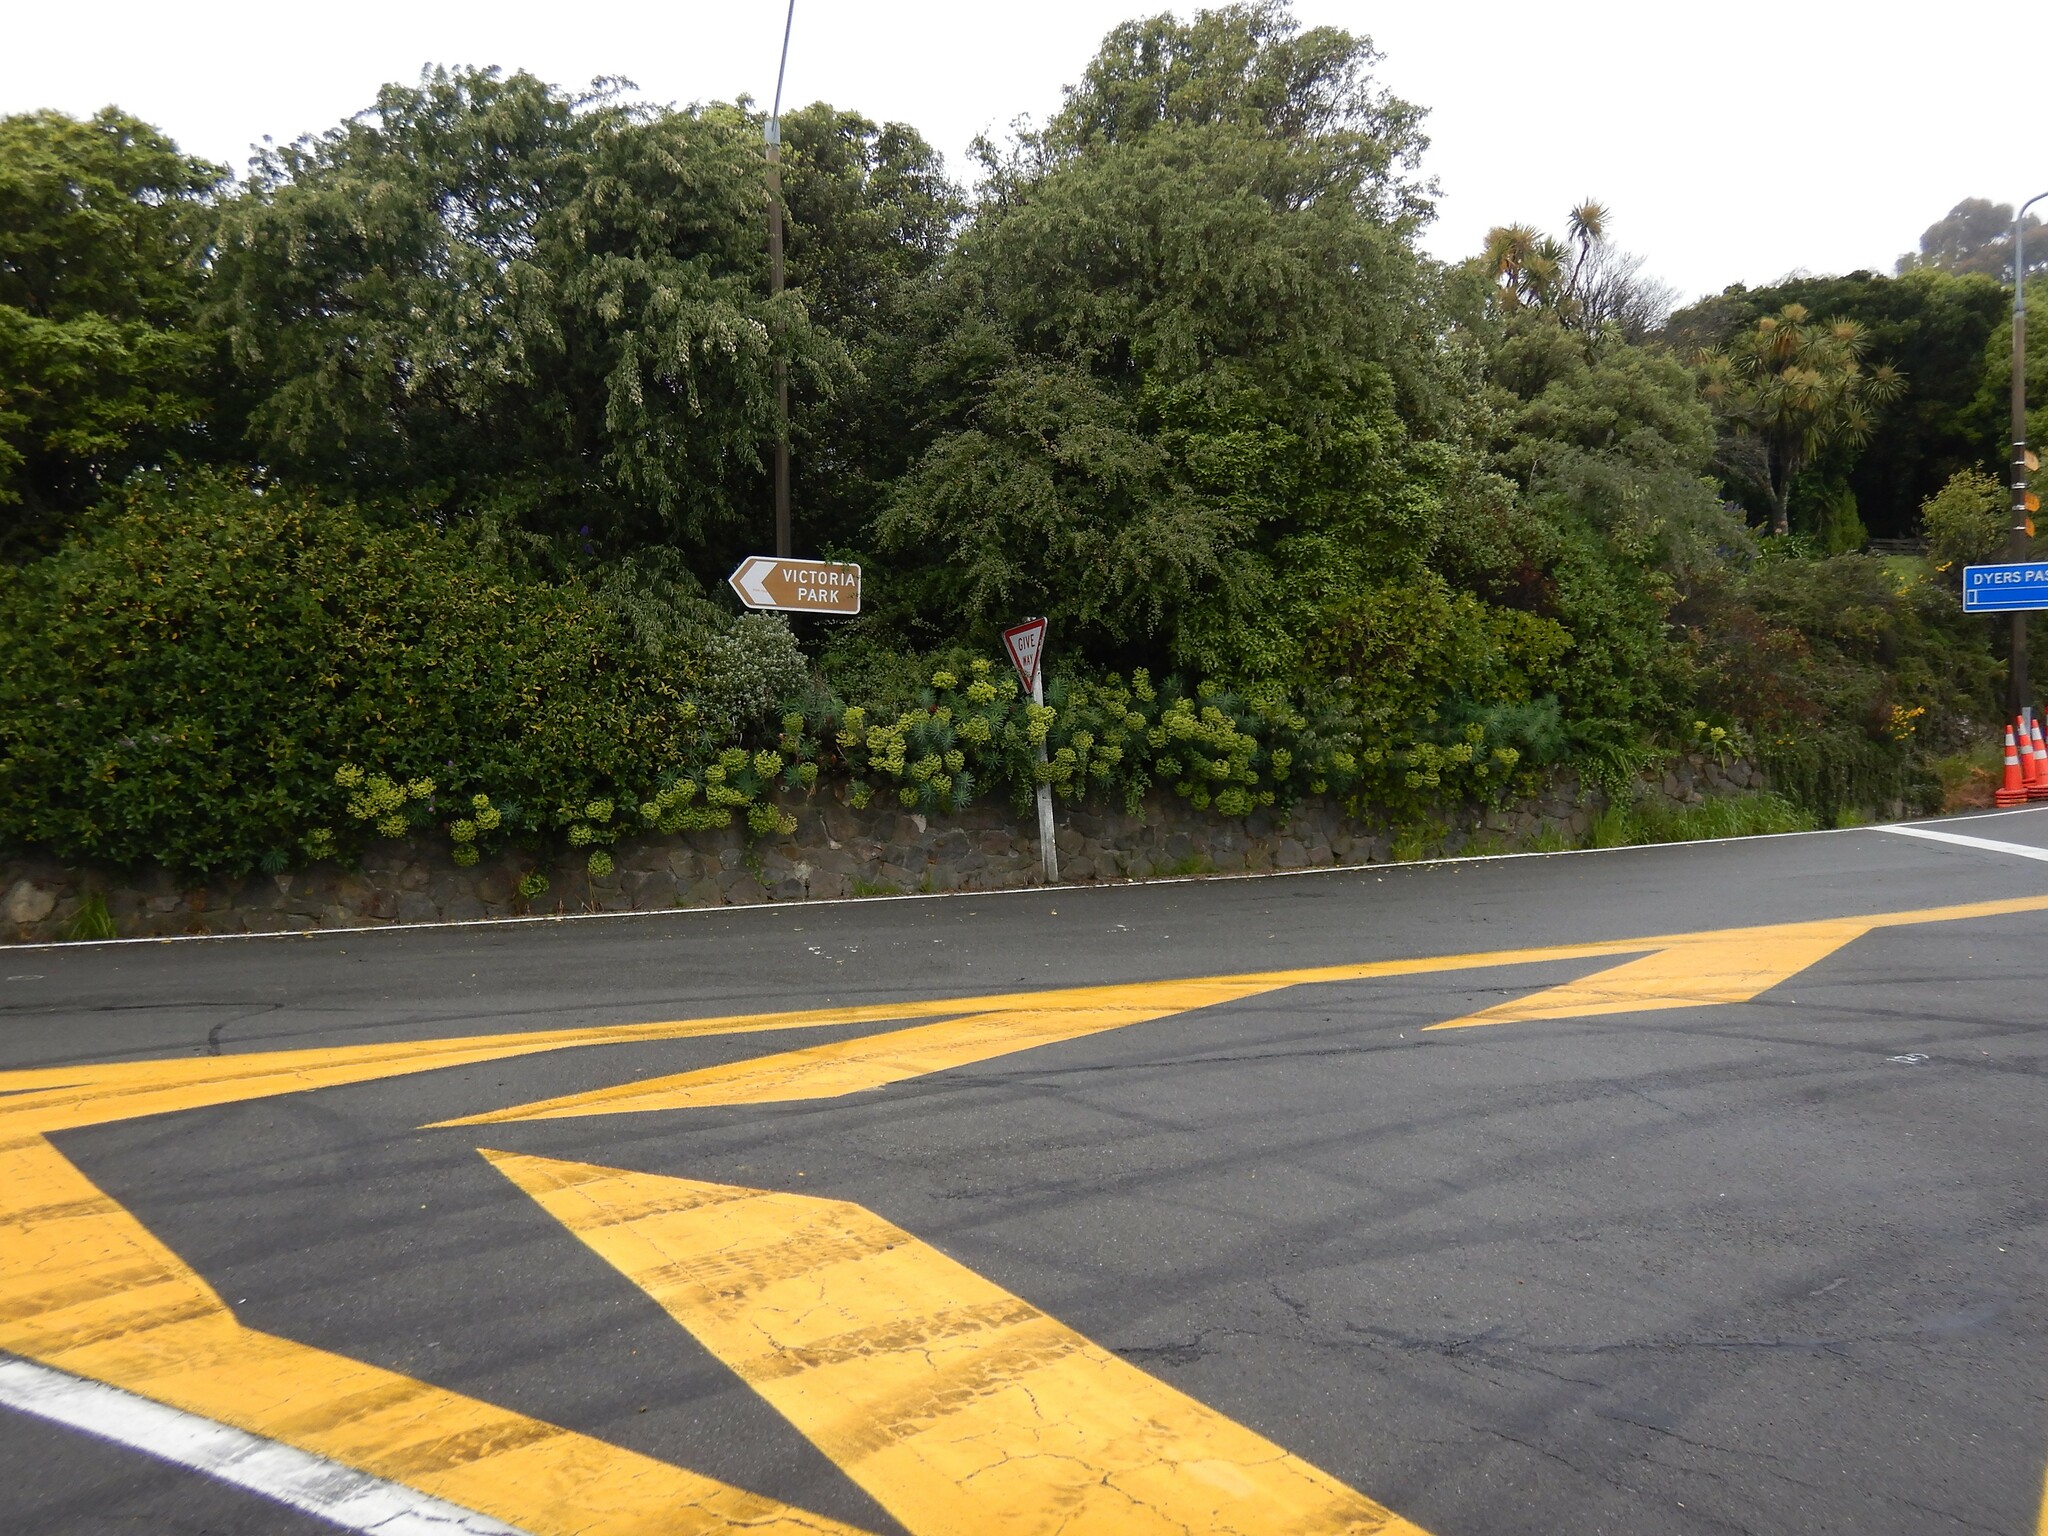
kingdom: Plantae
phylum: Tracheophyta
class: Magnoliopsida
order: Malpighiales
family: Euphorbiaceae
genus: Euphorbia
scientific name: Euphorbia characias
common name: Mediterranean spurge
